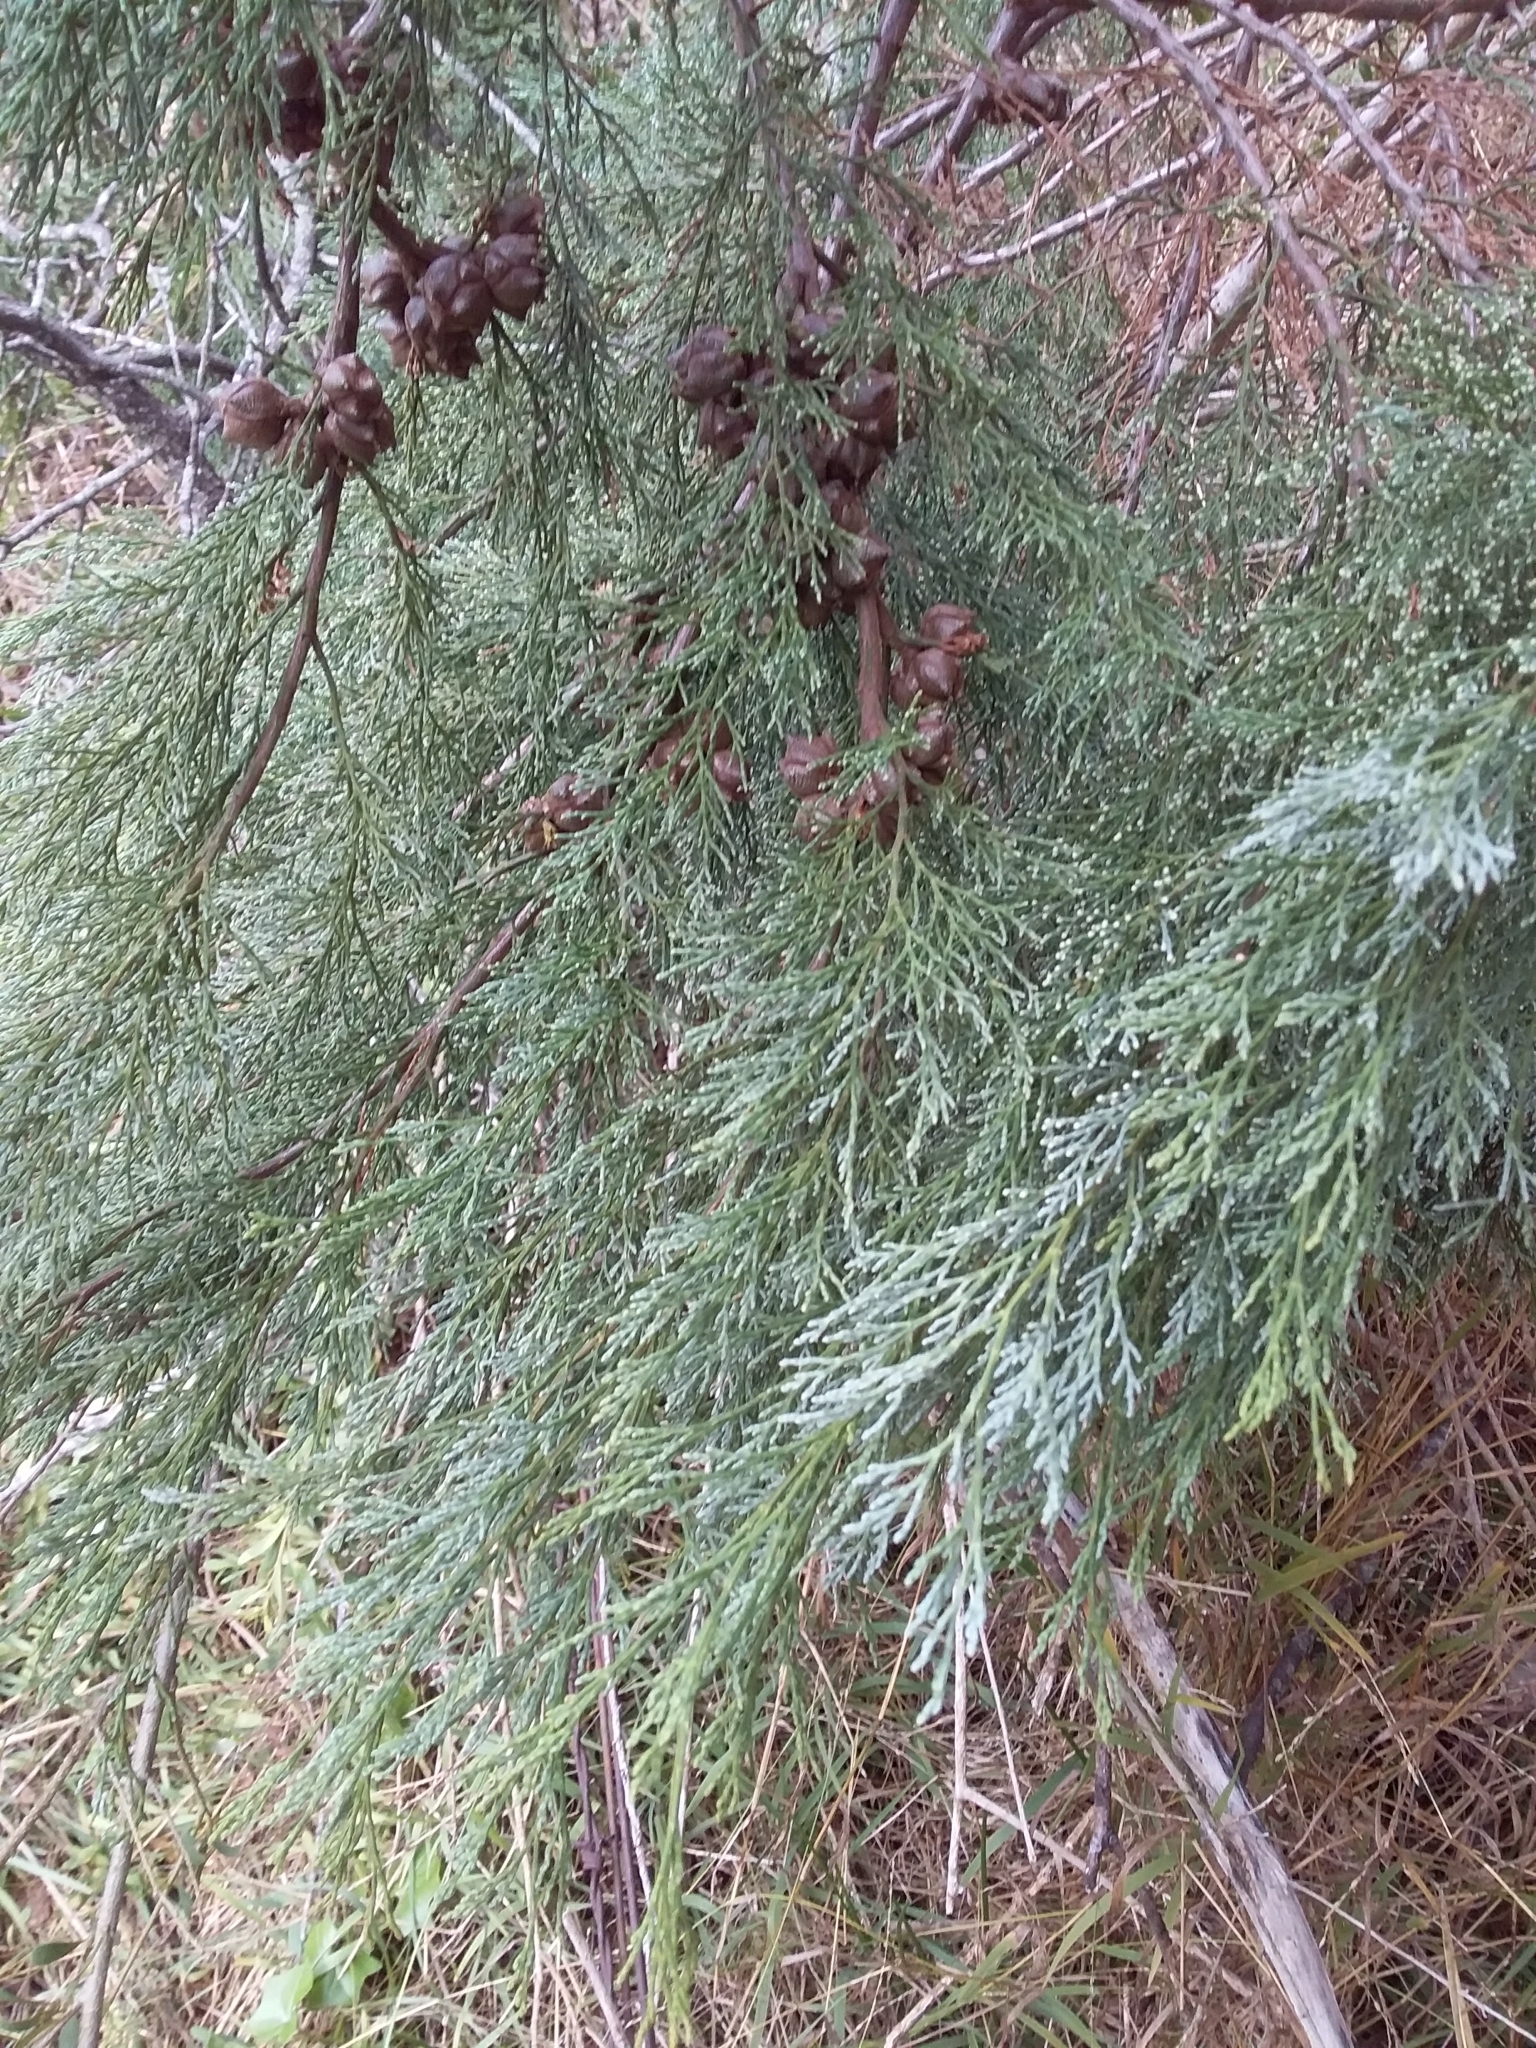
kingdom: Plantae
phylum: Tracheophyta
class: Pinopsida
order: Pinales
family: Cupressaceae
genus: Callitris
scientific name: Callitris rhomboidea
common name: Illawara mountain pine
